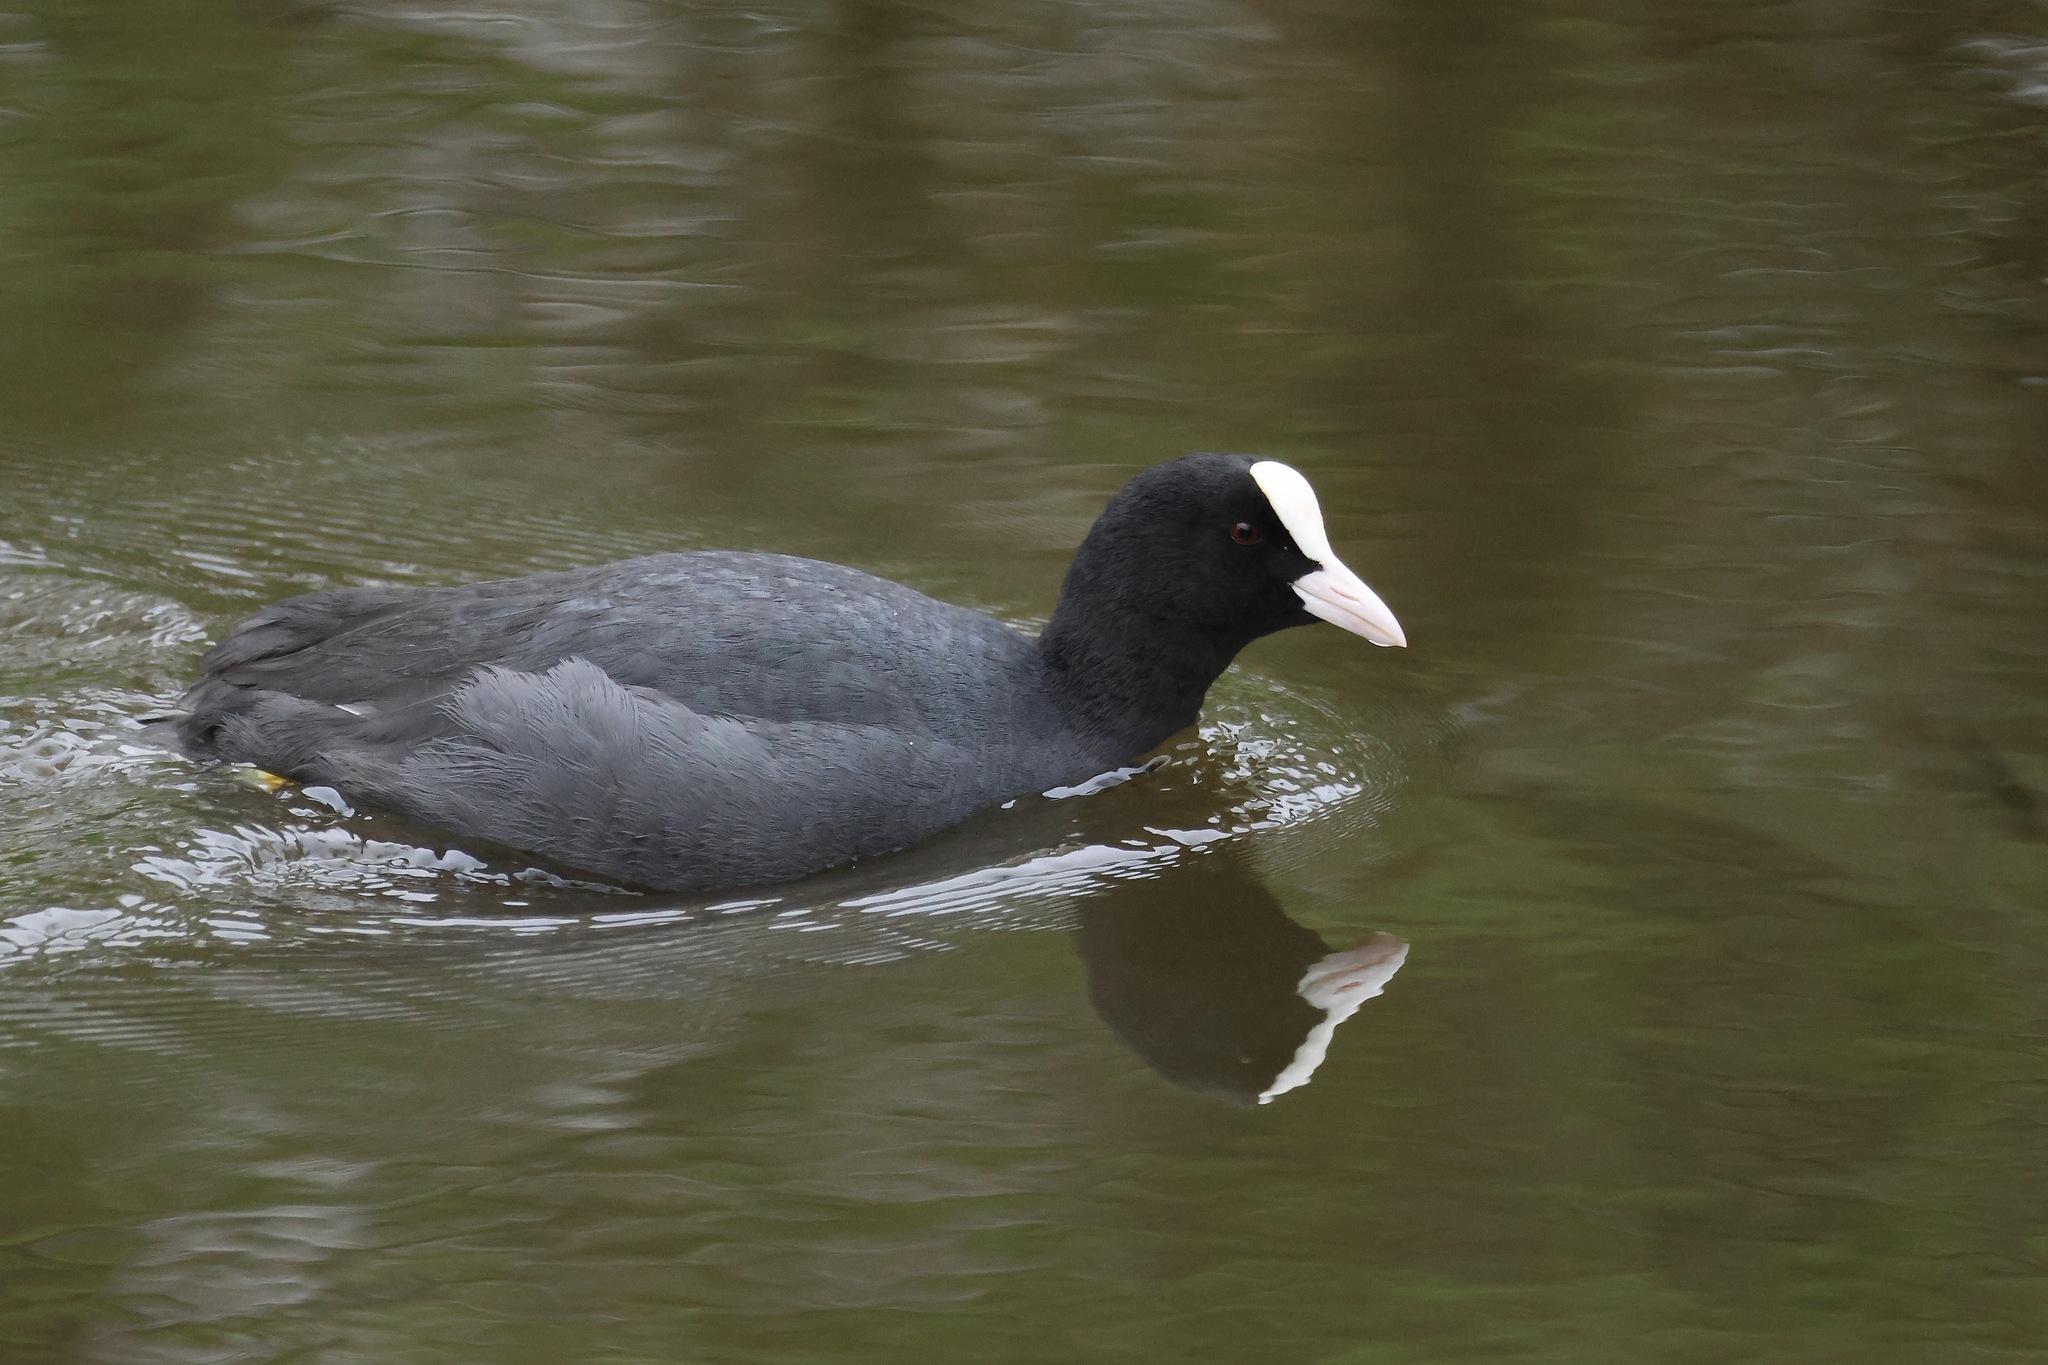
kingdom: Animalia
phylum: Chordata
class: Aves
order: Gruiformes
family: Rallidae
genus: Fulica
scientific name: Fulica atra
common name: Eurasian coot
